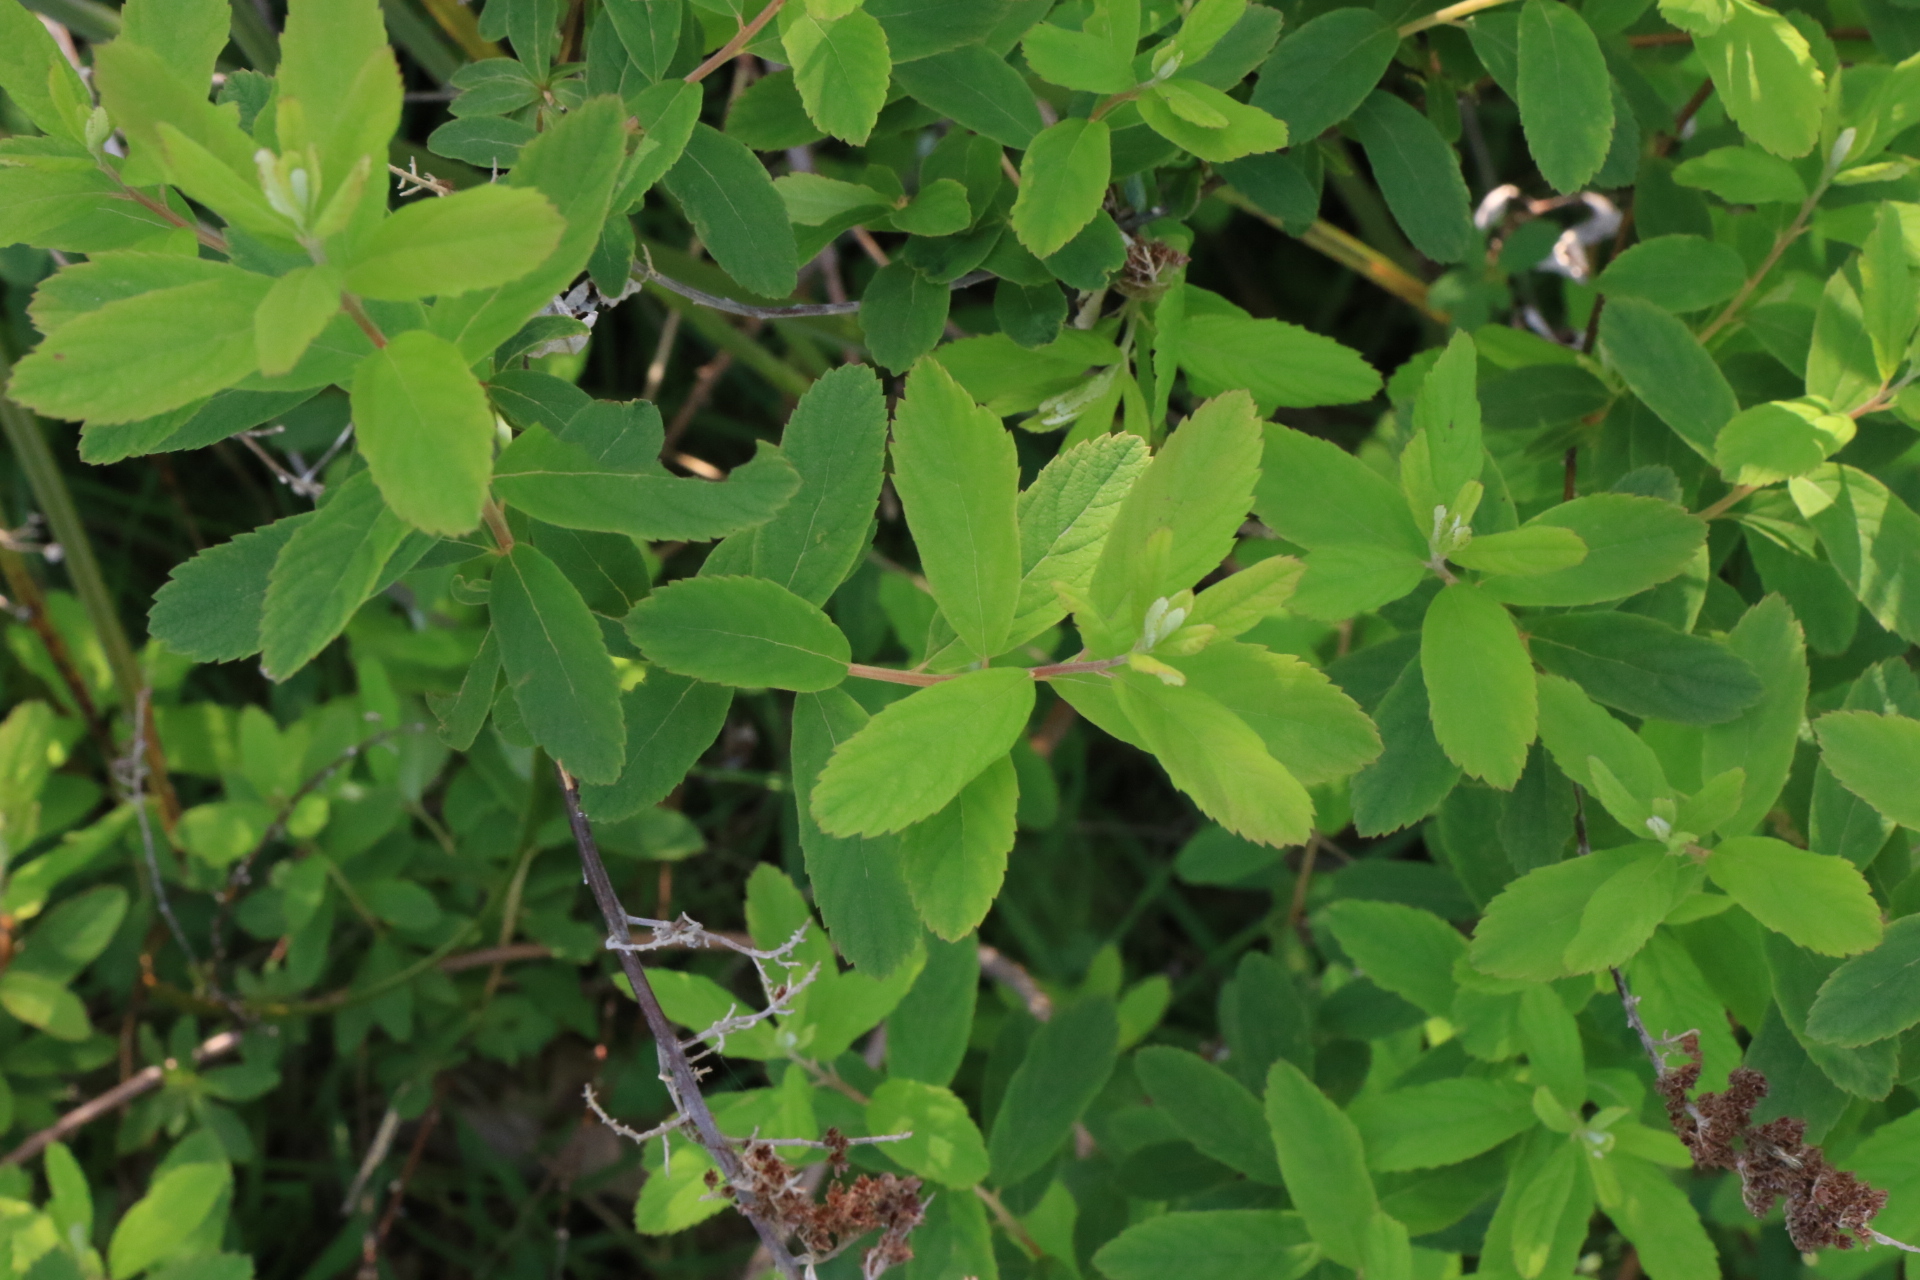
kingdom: Plantae
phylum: Tracheophyta
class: Magnoliopsida
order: Rosales
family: Rosaceae
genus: Spiraea
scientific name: Spiraea douglasii
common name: Steeplebush
